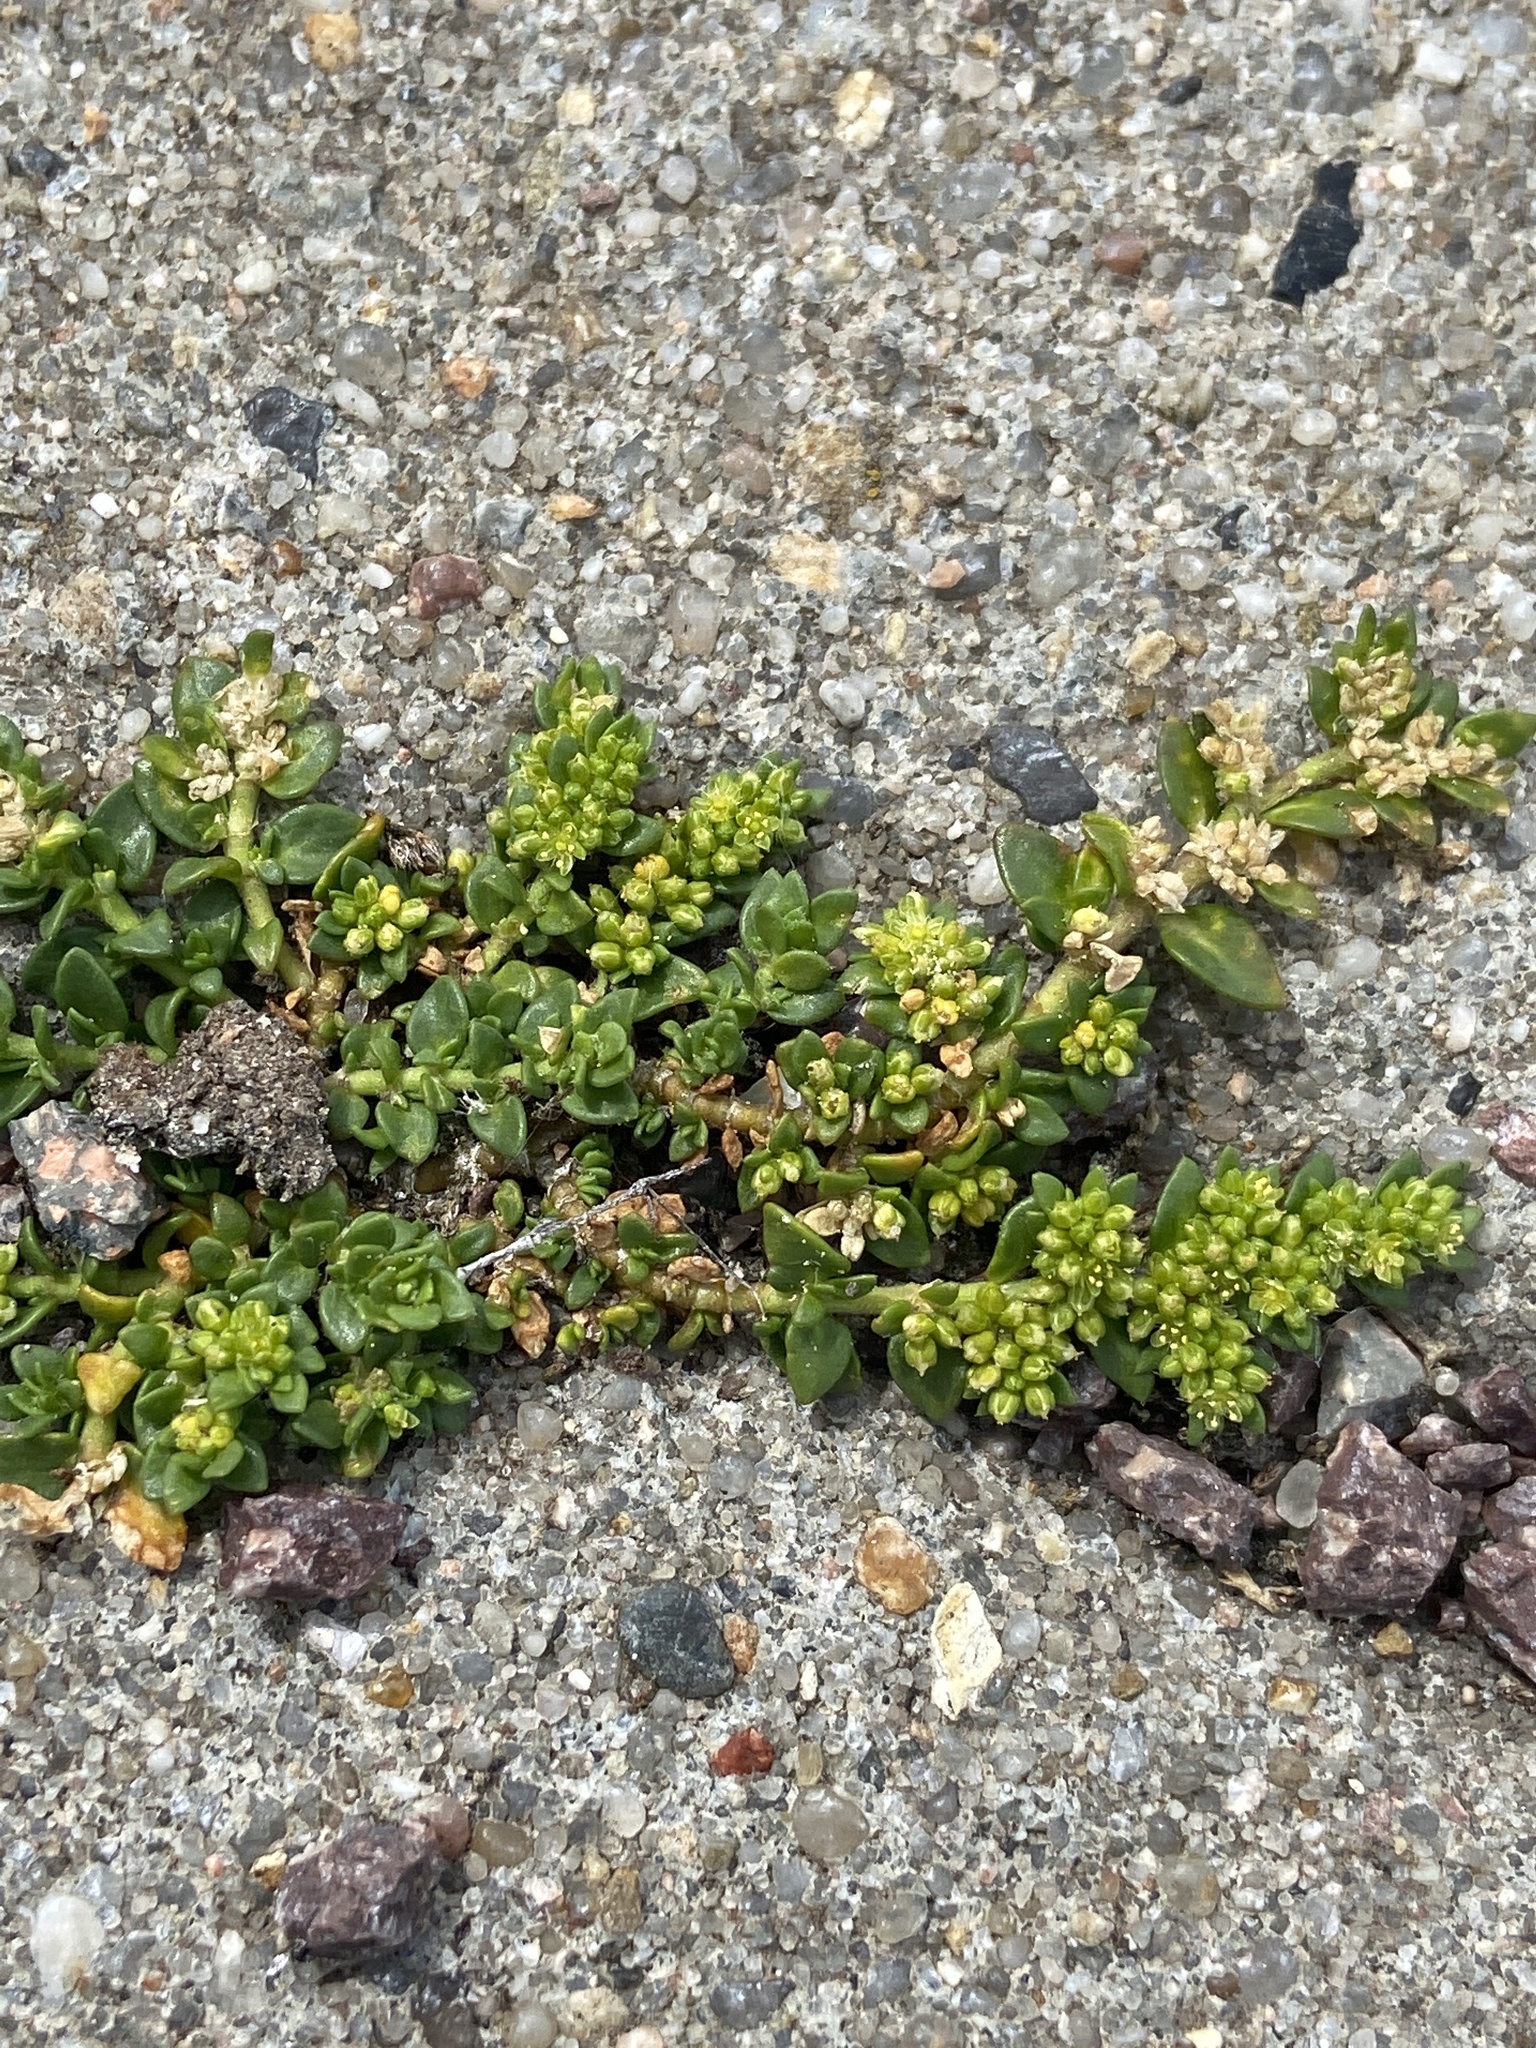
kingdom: Plantae
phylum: Tracheophyta
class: Magnoliopsida
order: Caryophyllales
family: Caryophyllaceae
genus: Herniaria
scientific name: Herniaria glabra
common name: Smooth rupturewort
